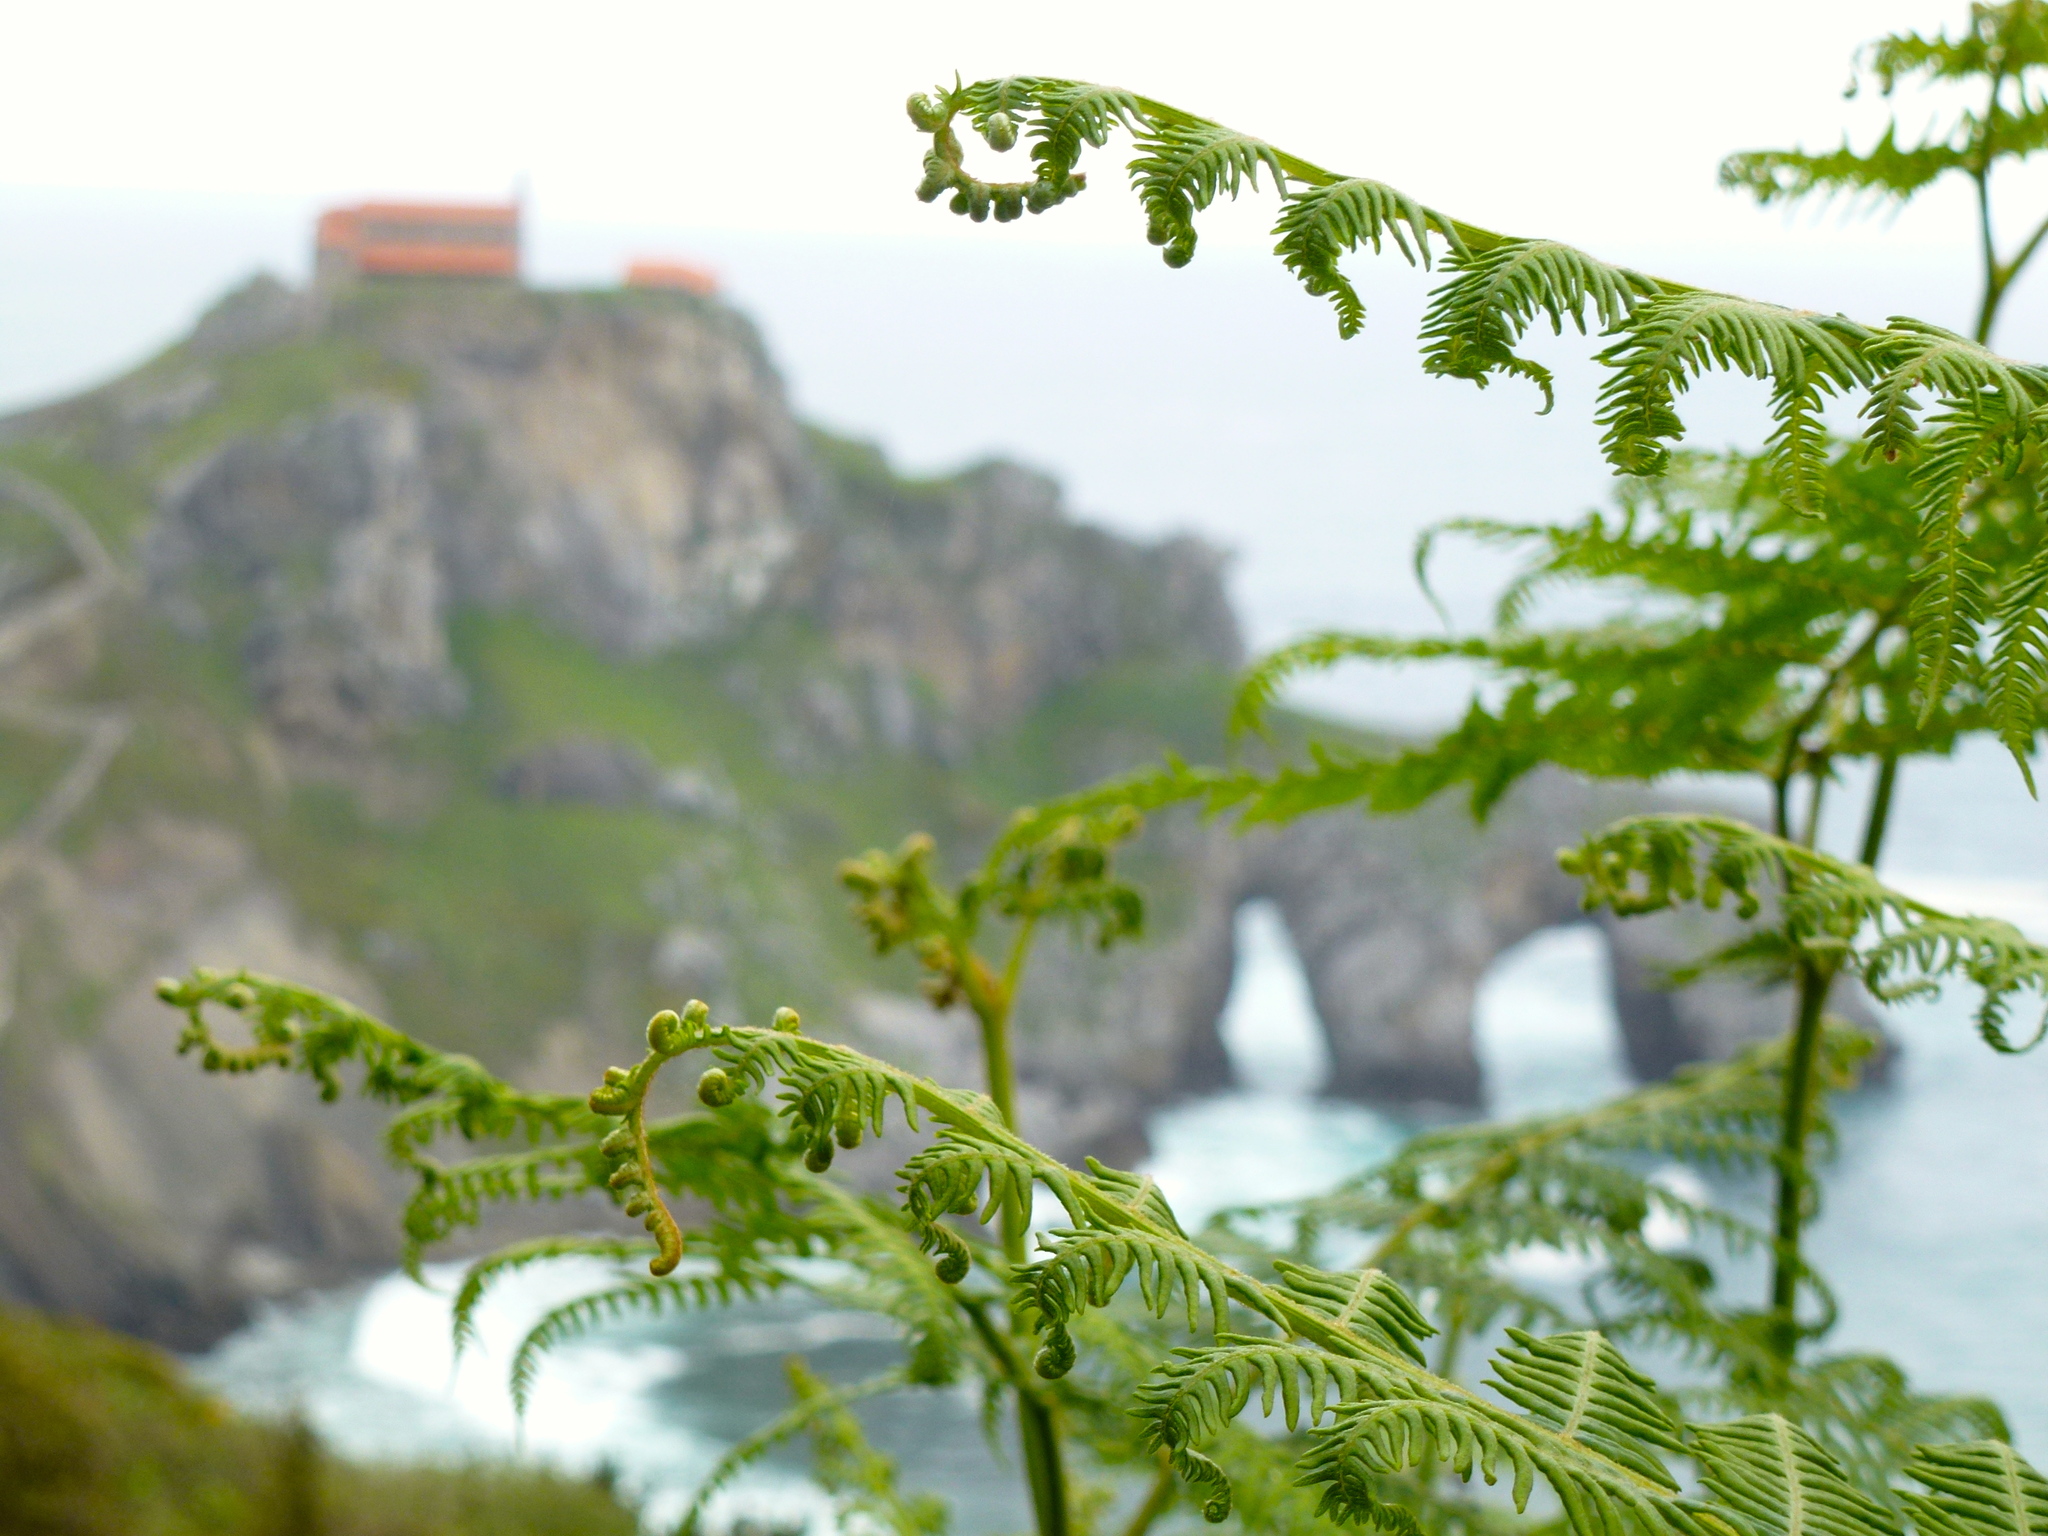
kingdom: Plantae
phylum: Tracheophyta
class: Polypodiopsida
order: Polypodiales
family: Dennstaedtiaceae
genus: Pteridium
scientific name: Pteridium aquilinum
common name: Bracken
